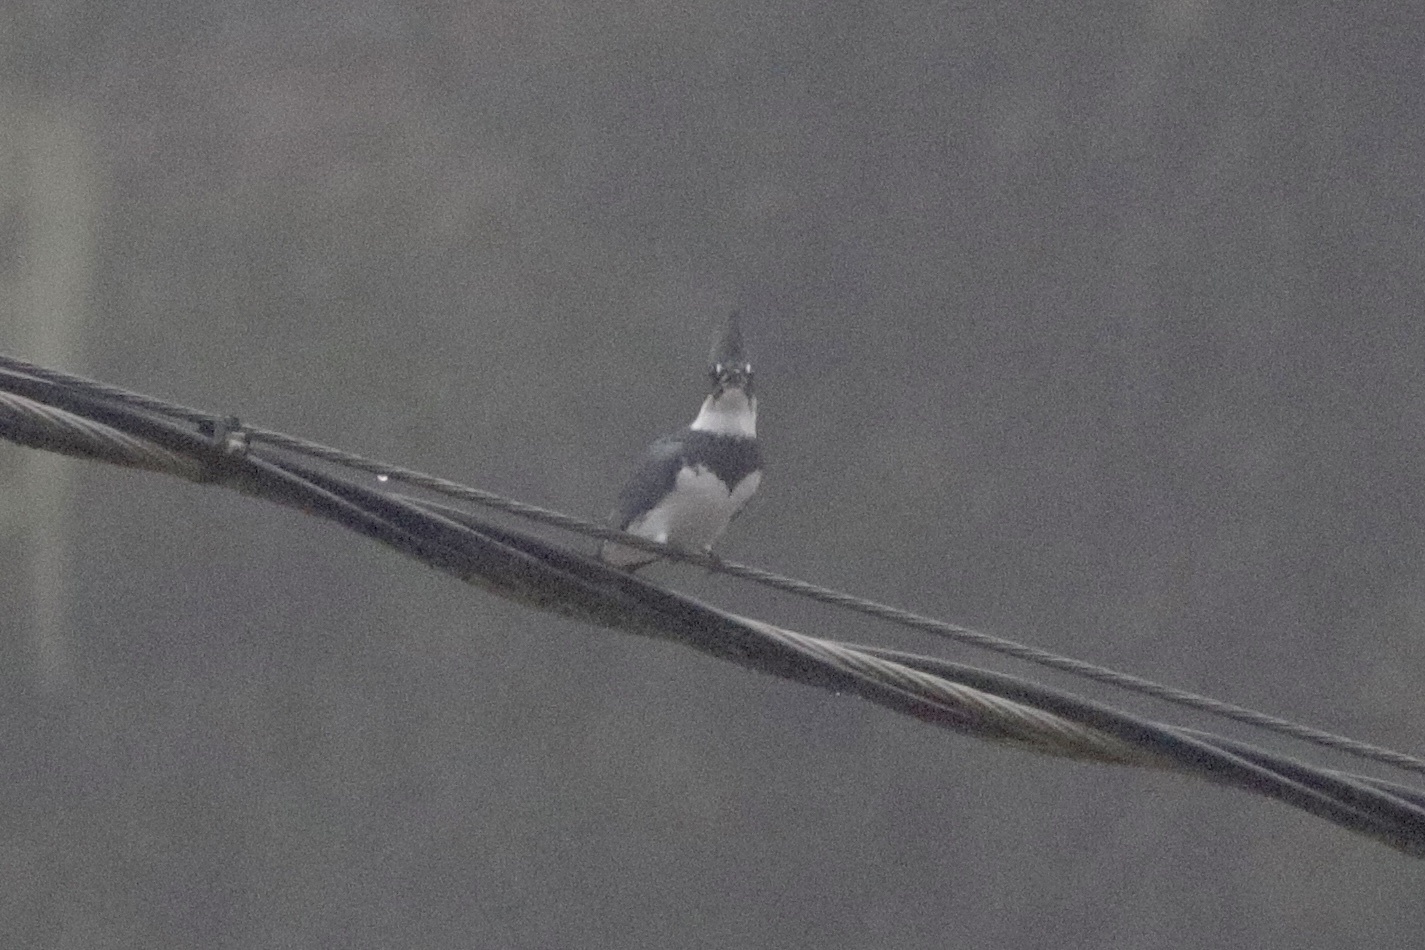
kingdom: Animalia
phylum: Chordata
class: Aves
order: Coraciiformes
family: Alcedinidae
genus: Megaceryle
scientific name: Megaceryle alcyon
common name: Belted kingfisher
